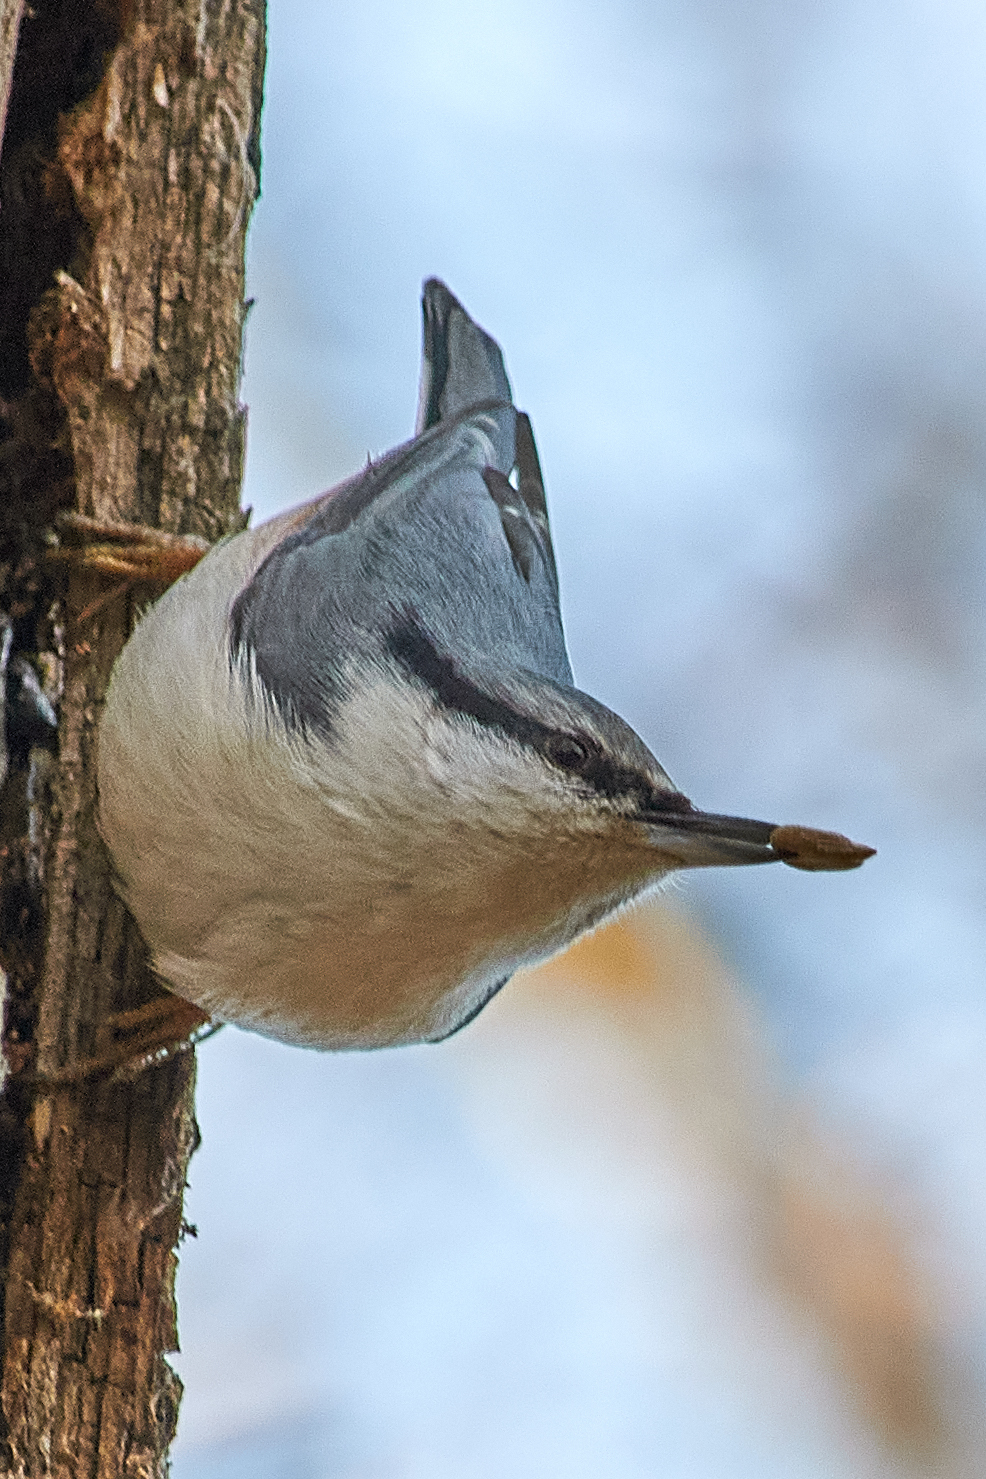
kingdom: Animalia
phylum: Chordata
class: Aves
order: Passeriformes
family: Sittidae
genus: Sitta
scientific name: Sitta europaea
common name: Eurasian nuthatch
